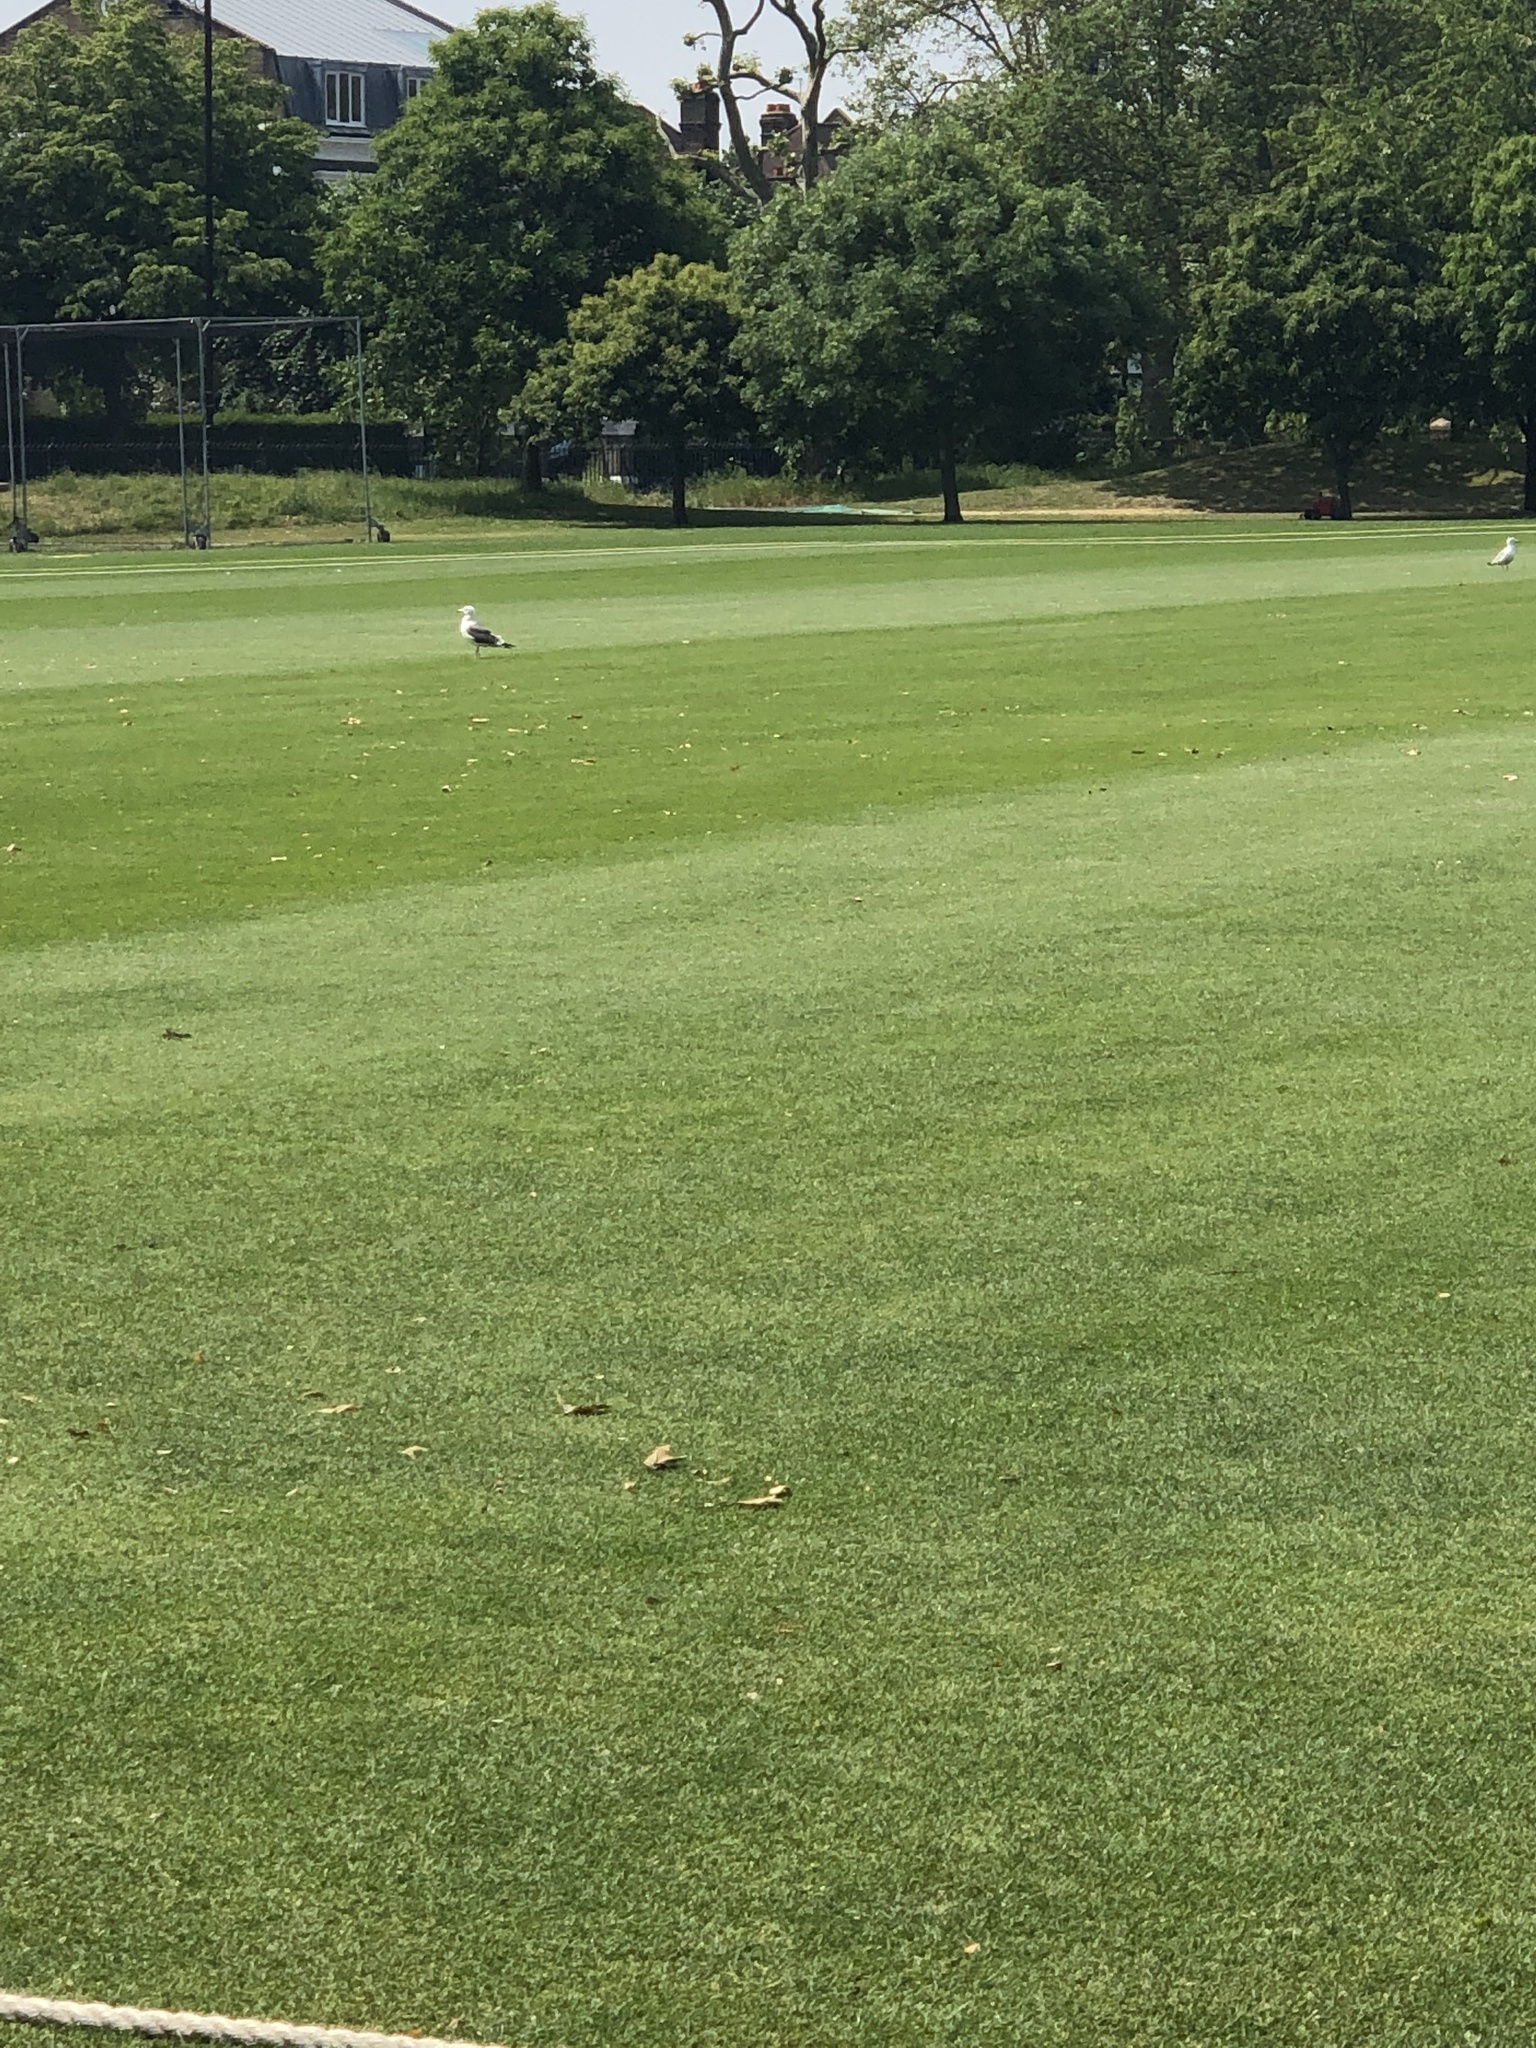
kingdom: Animalia
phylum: Chordata
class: Aves
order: Charadriiformes
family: Laridae
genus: Larus
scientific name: Larus fuscus
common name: Lesser black-backed gull
